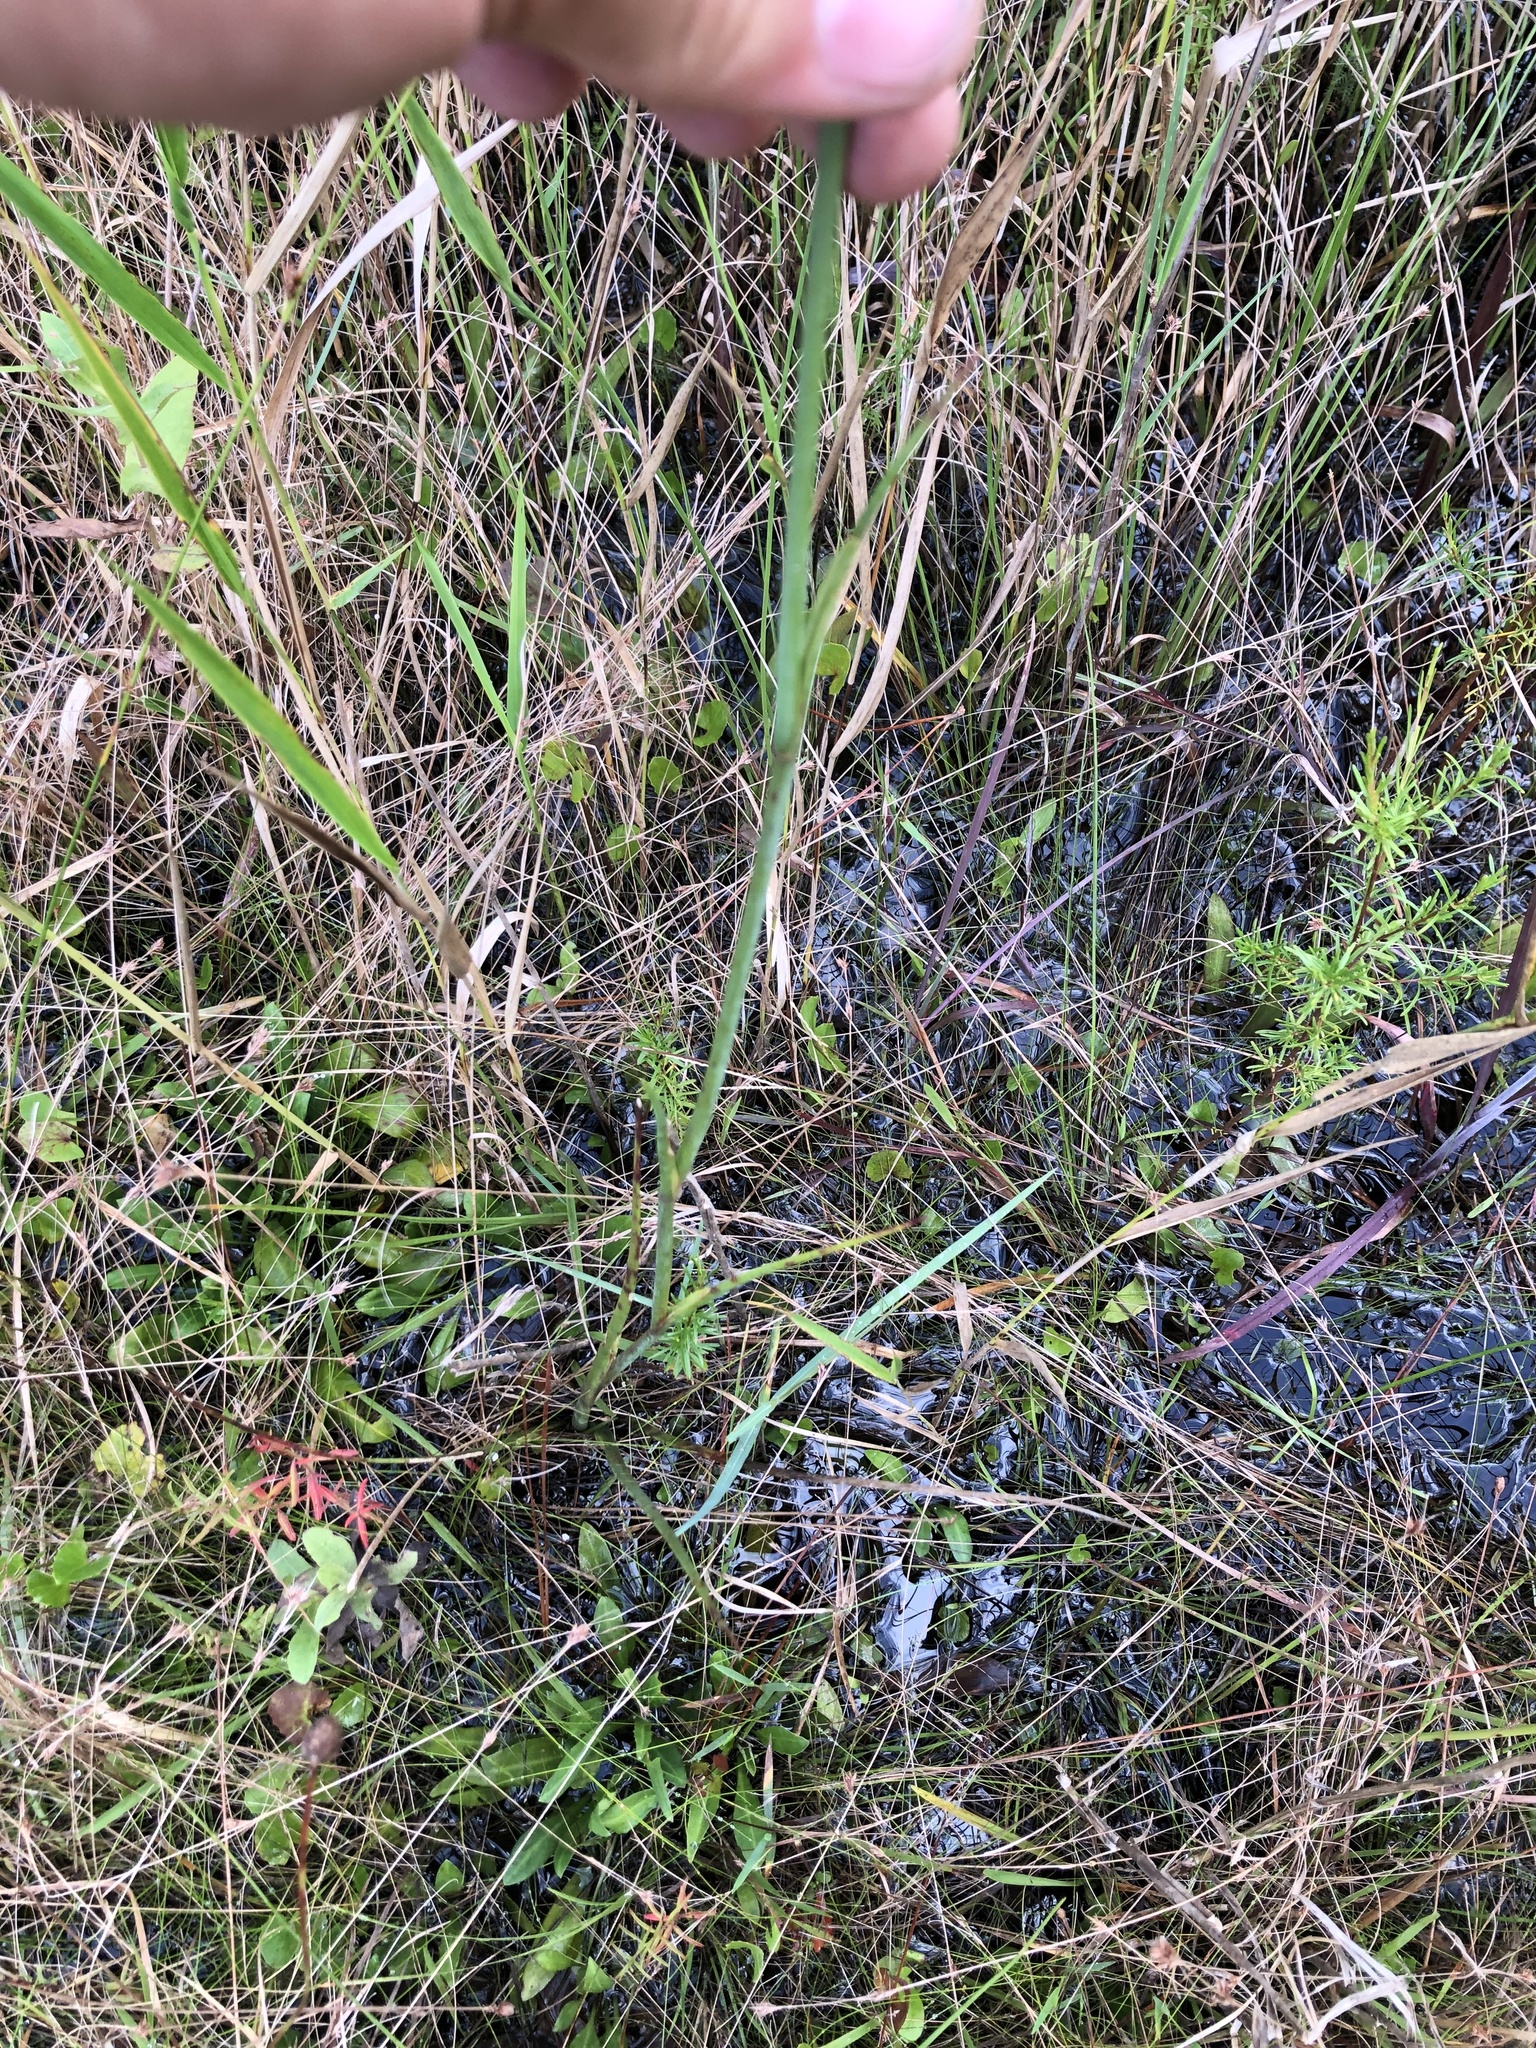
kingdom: Plantae
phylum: Tracheophyta
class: Magnoliopsida
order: Apiales
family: Apiaceae
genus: Tiedemannia
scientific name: Tiedemannia filiformis
